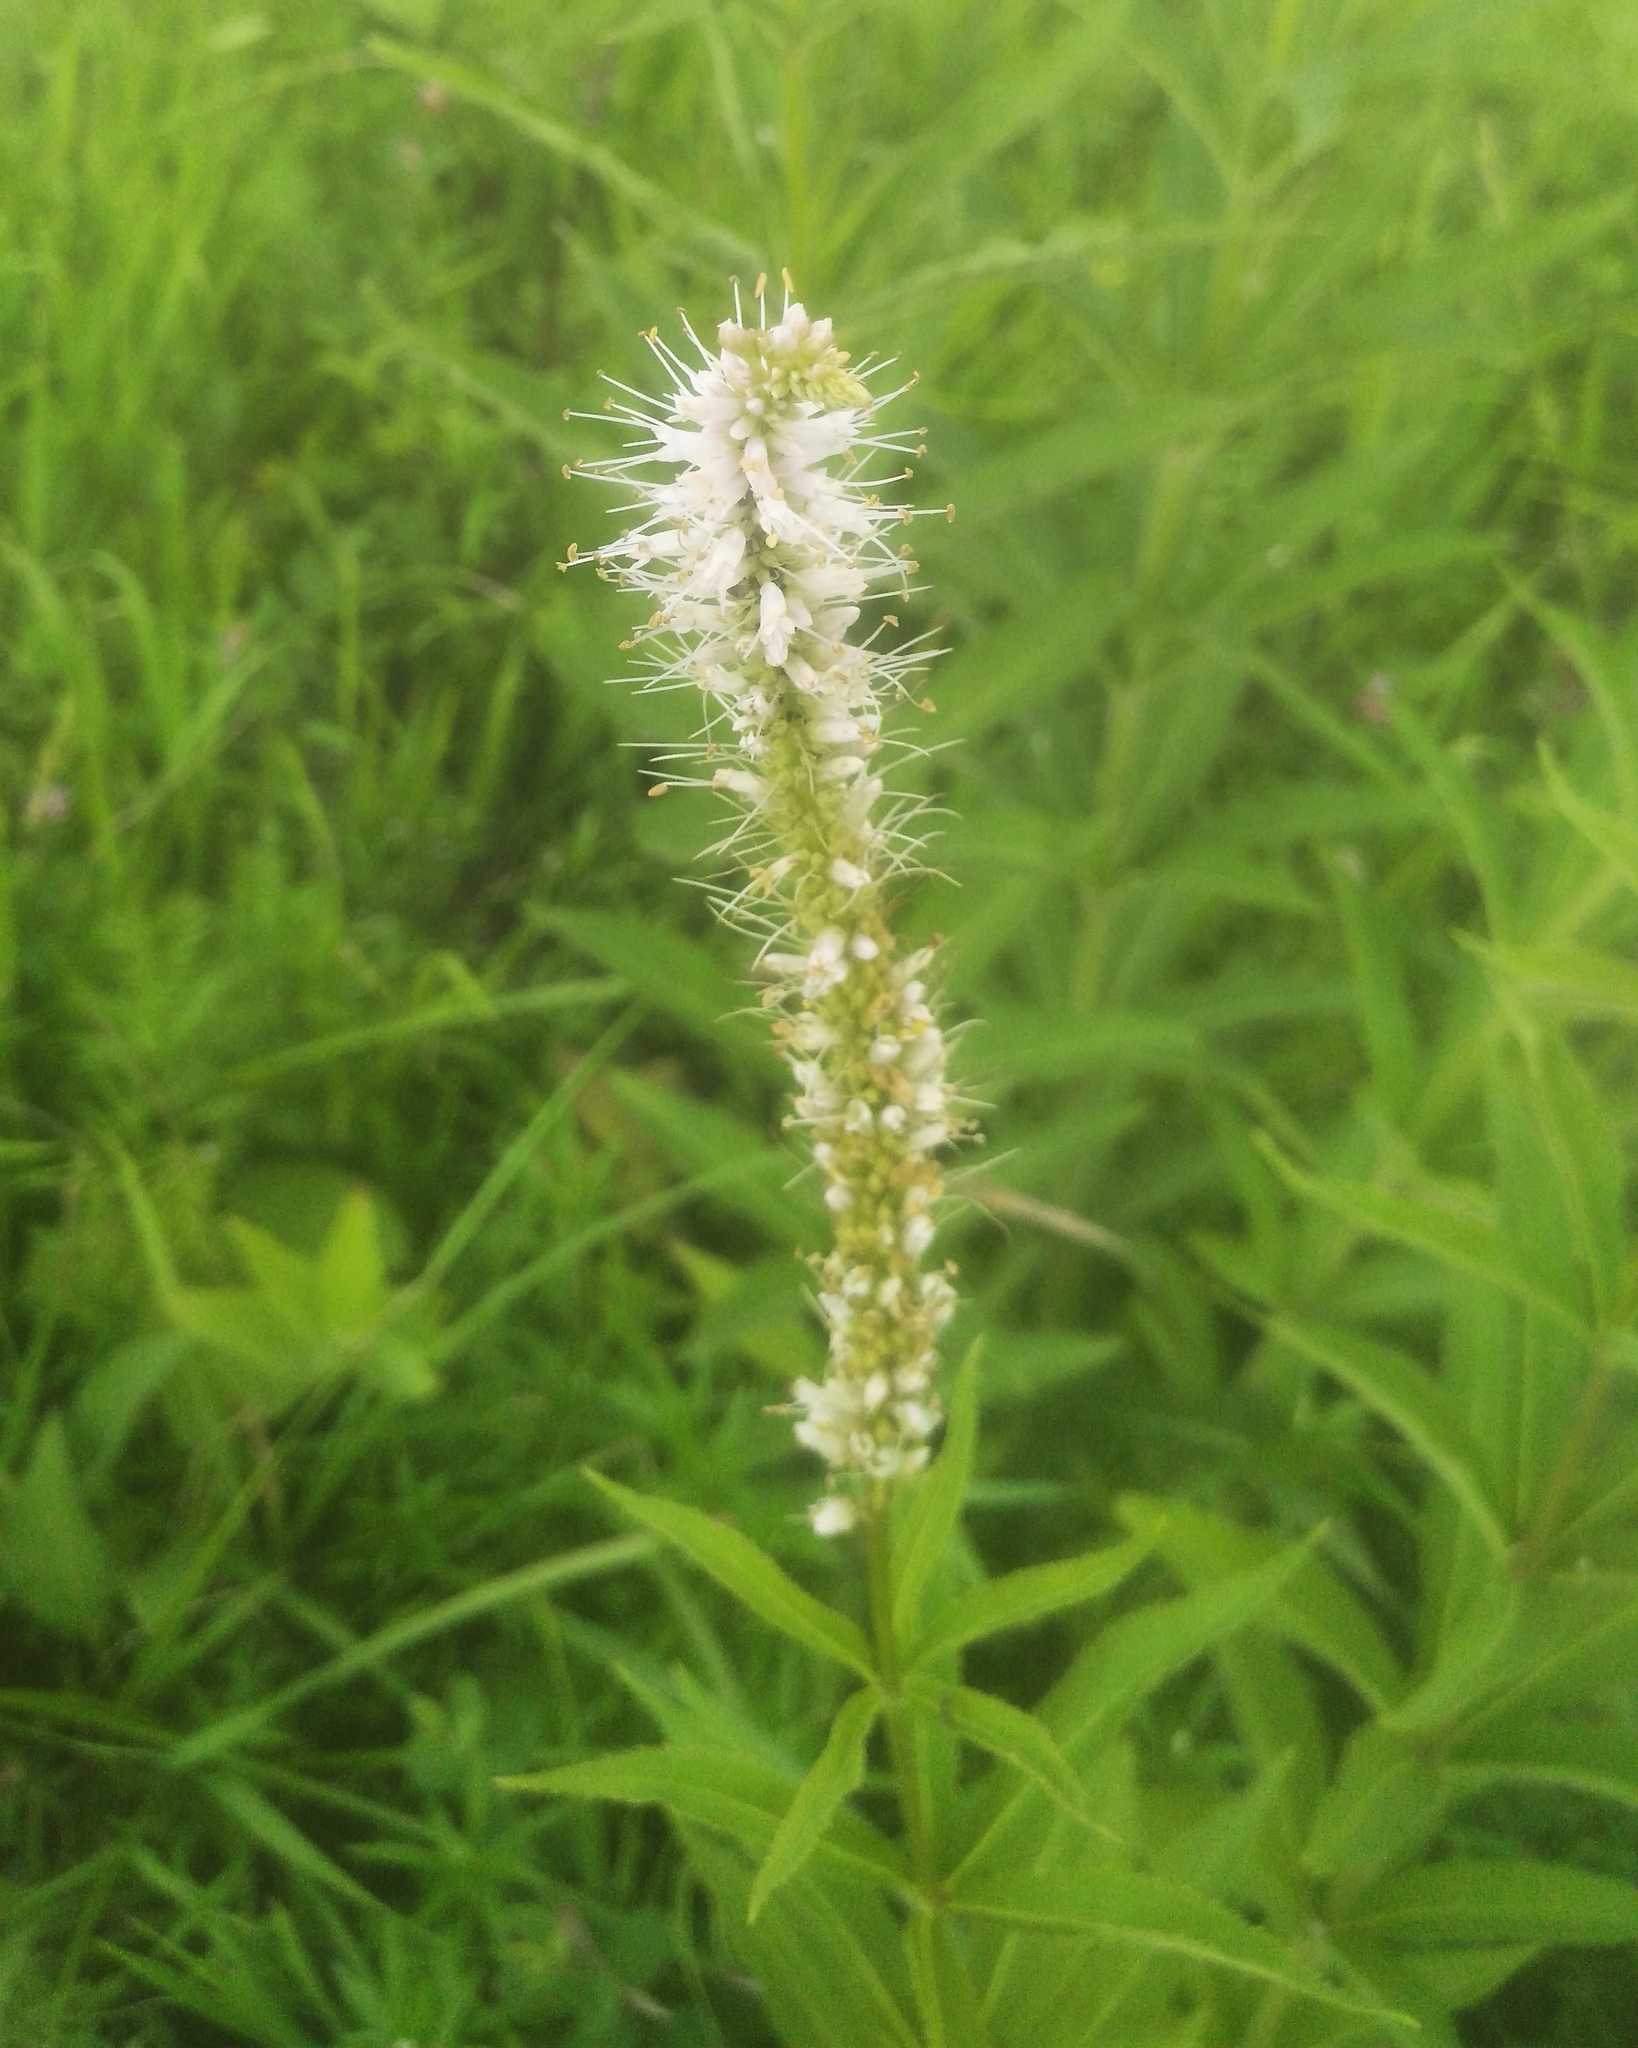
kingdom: Plantae
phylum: Tracheophyta
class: Magnoliopsida
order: Lamiales
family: Plantaginaceae
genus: Veronicastrum
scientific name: Veronicastrum sibiricum
